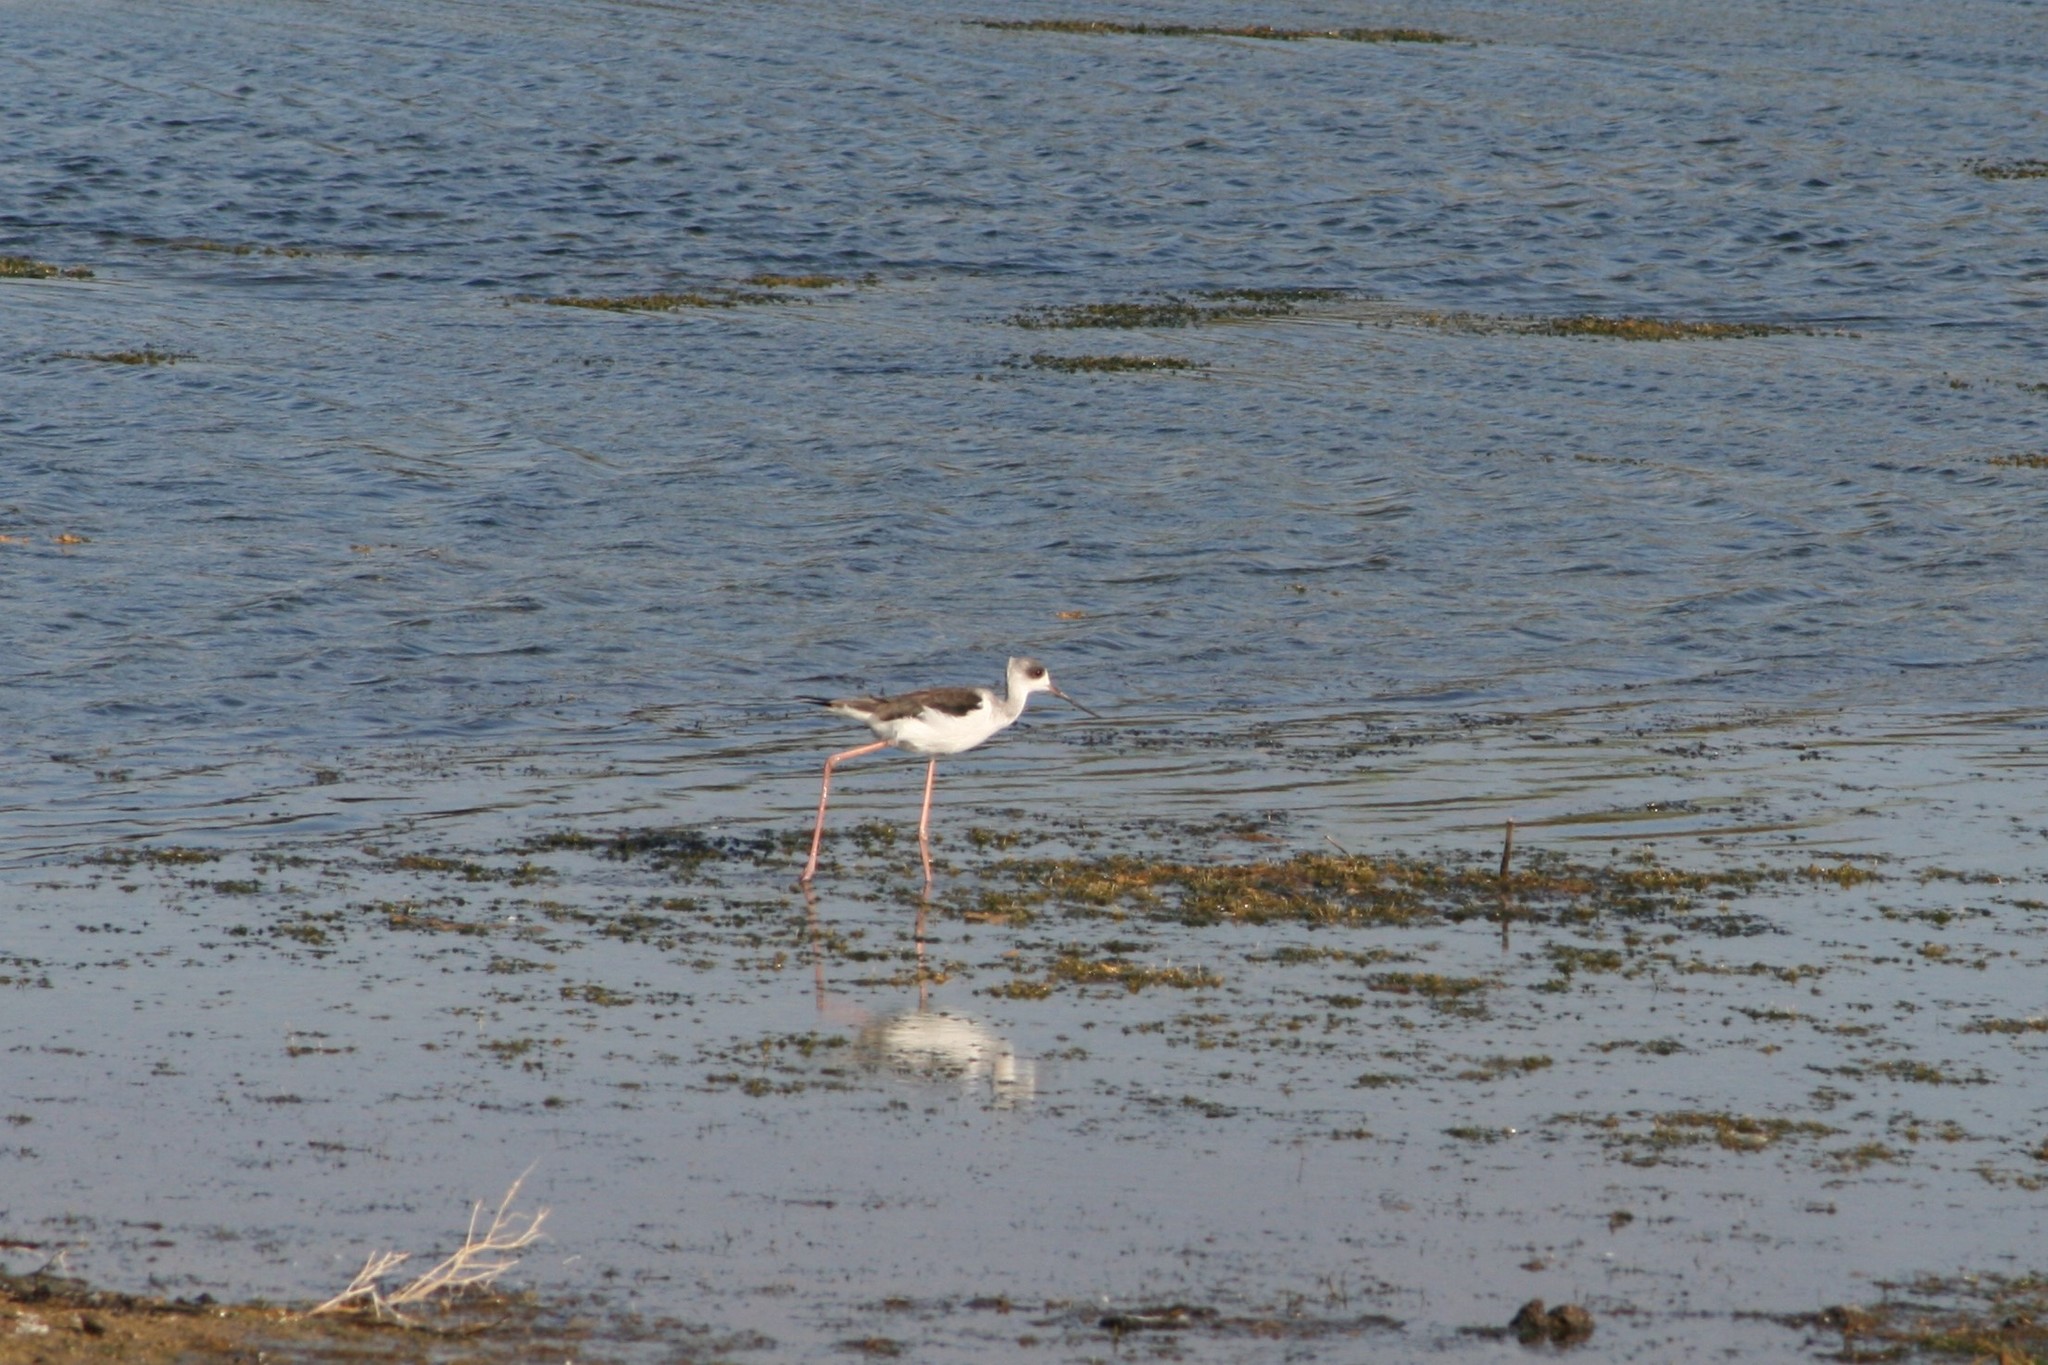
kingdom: Animalia
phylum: Chordata
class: Aves
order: Charadriiformes
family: Recurvirostridae
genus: Himantopus
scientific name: Himantopus himantopus
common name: Black-winged stilt
